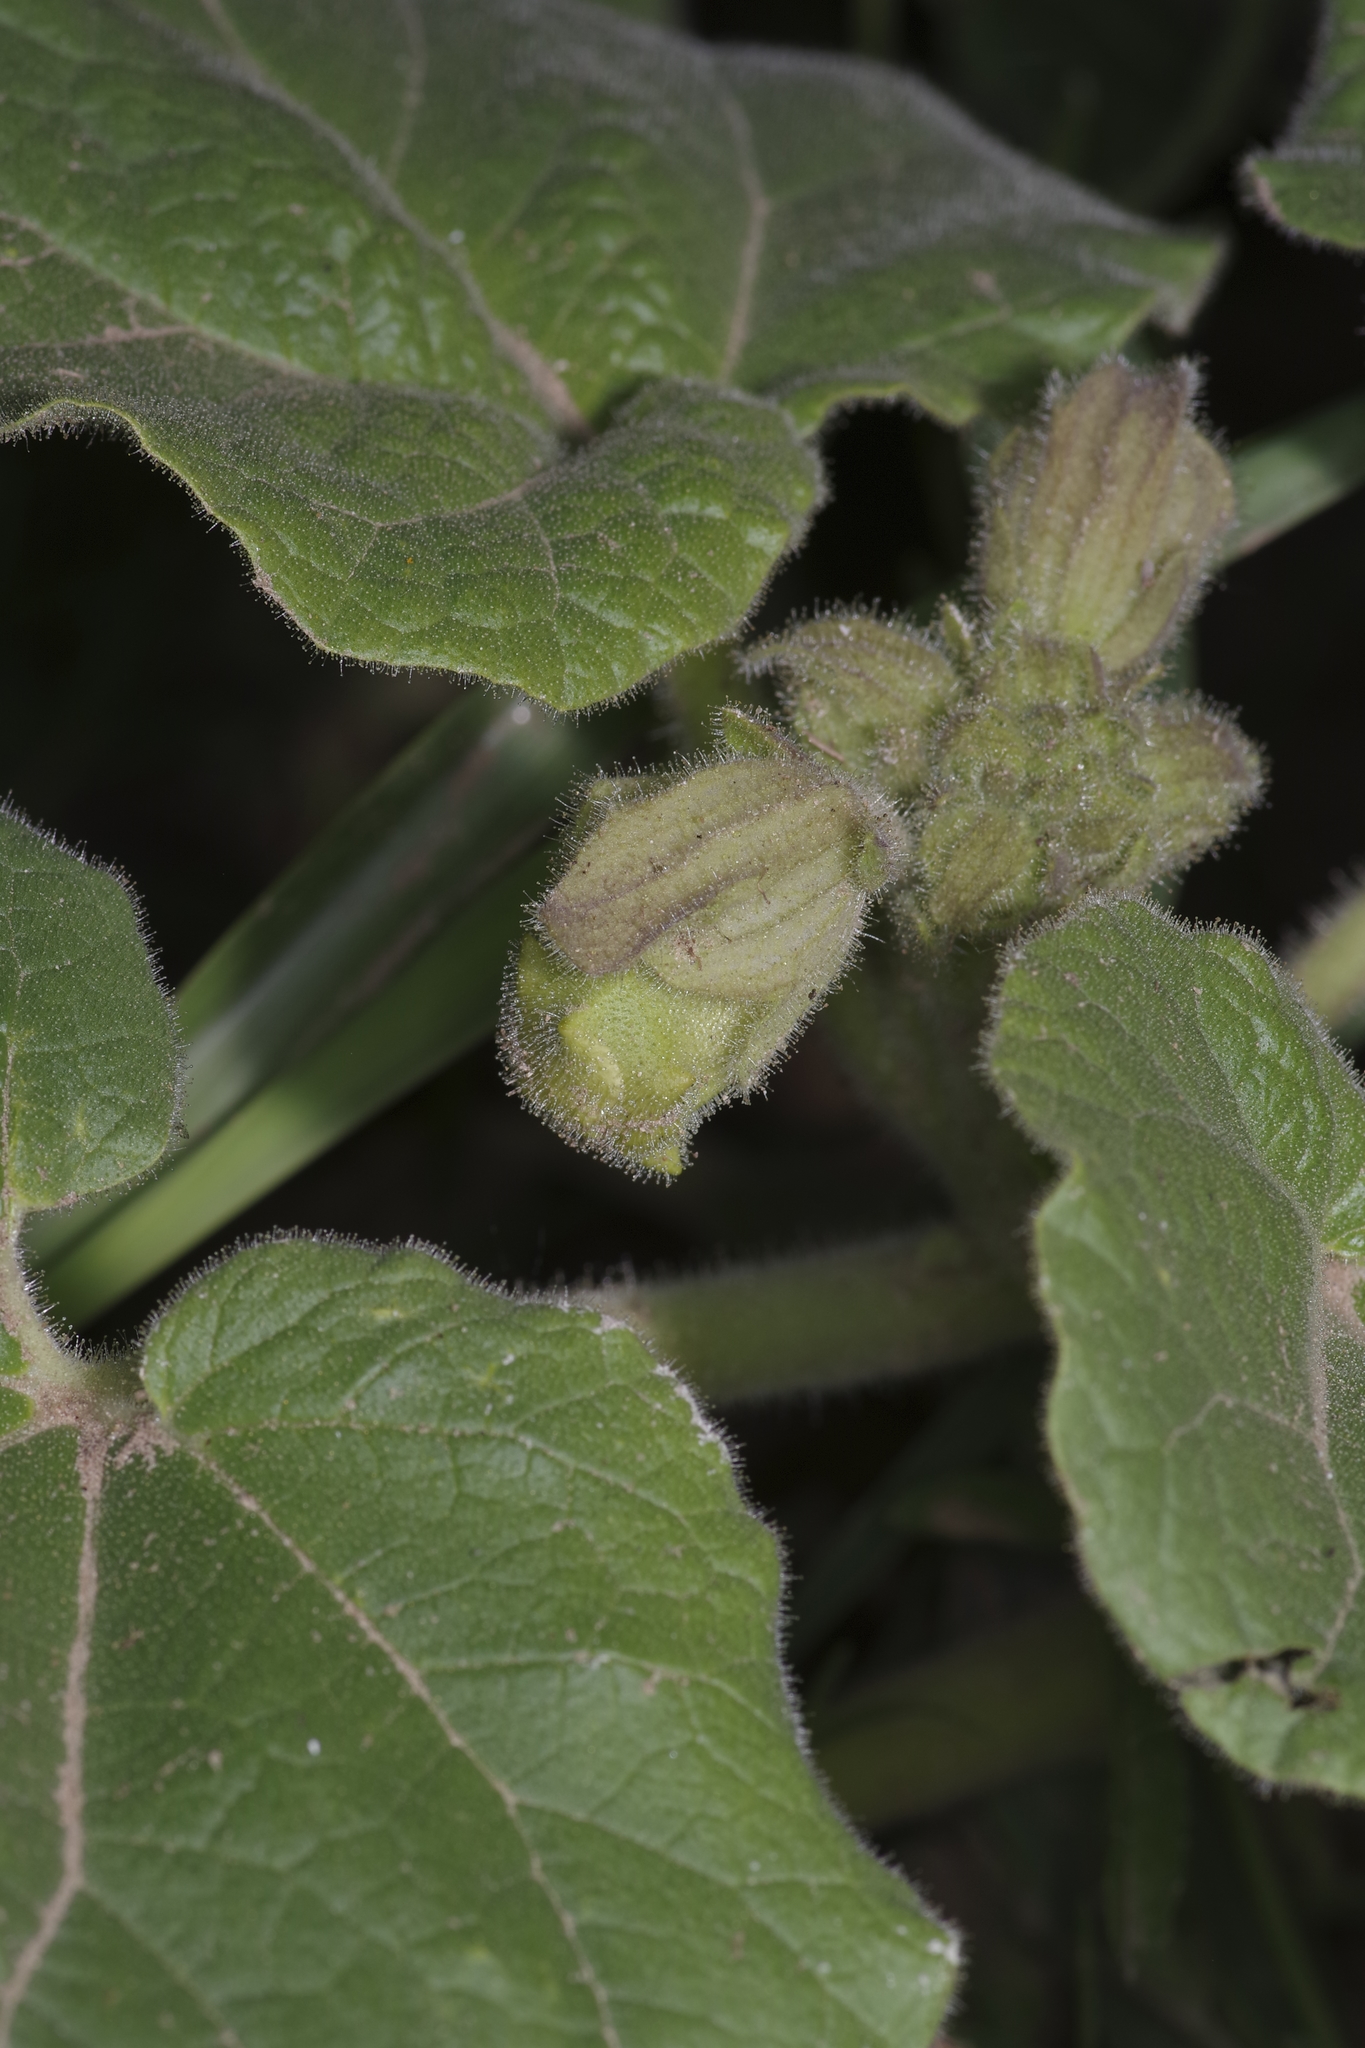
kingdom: Plantae
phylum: Tracheophyta
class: Magnoliopsida
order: Lamiales
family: Martyniaceae
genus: Proboscidea
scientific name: Proboscidea louisianica
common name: Elephant tusks
